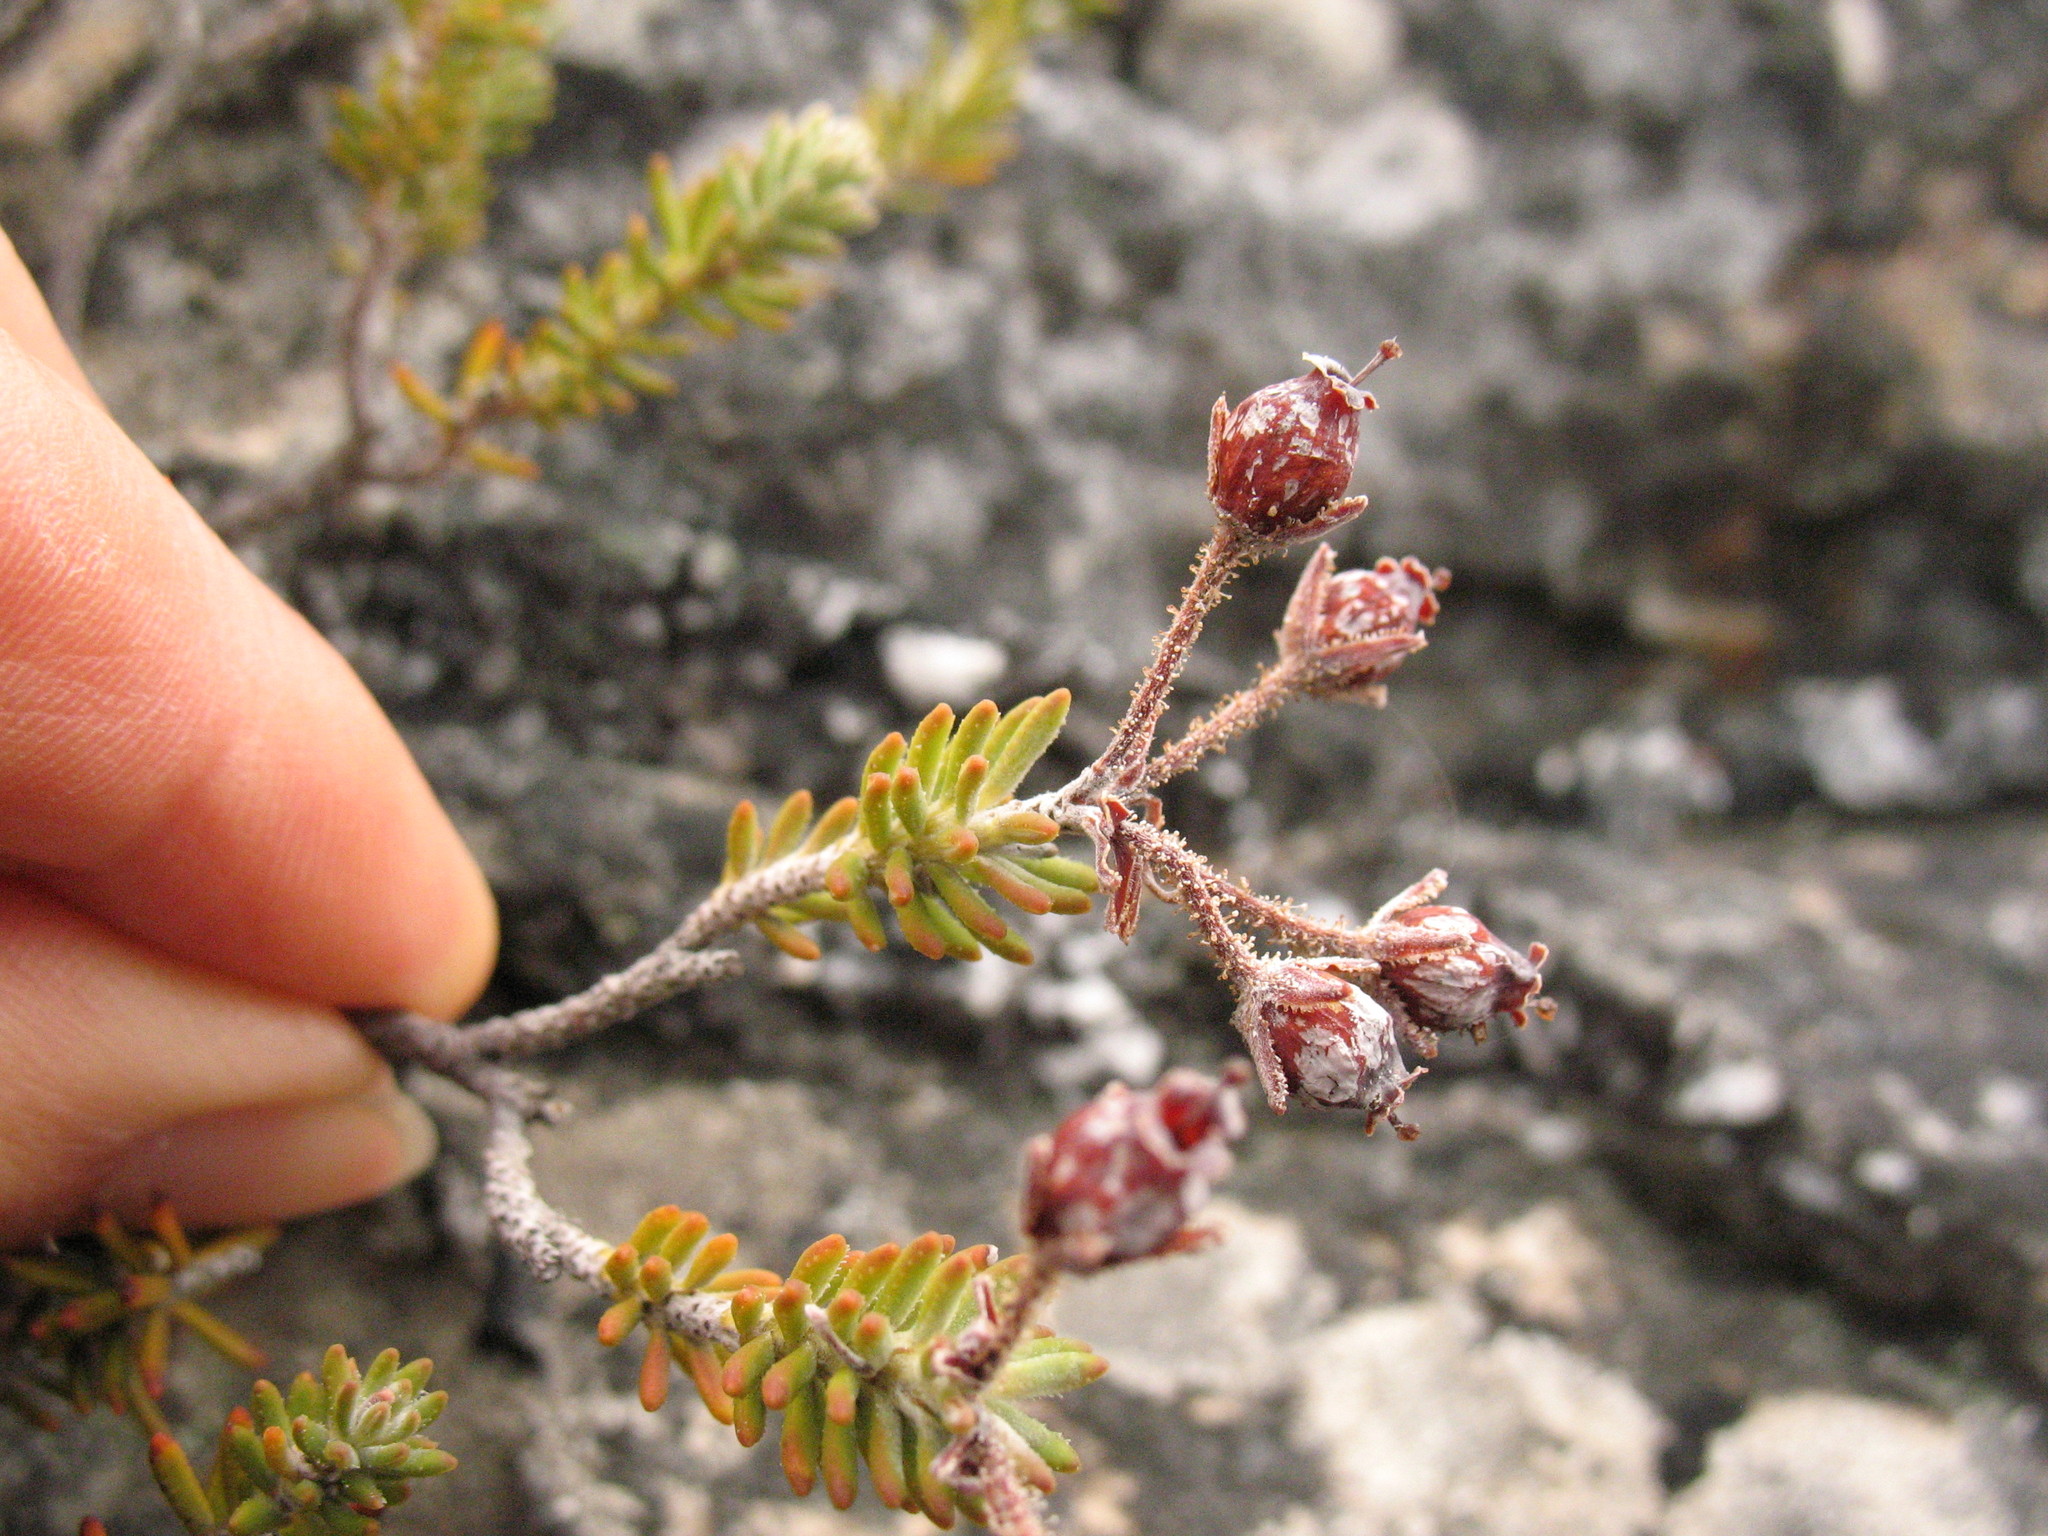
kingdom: Plantae
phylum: Tracheophyta
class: Magnoliopsida
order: Ericales
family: Ericaceae
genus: Erica
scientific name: Erica oresigena
